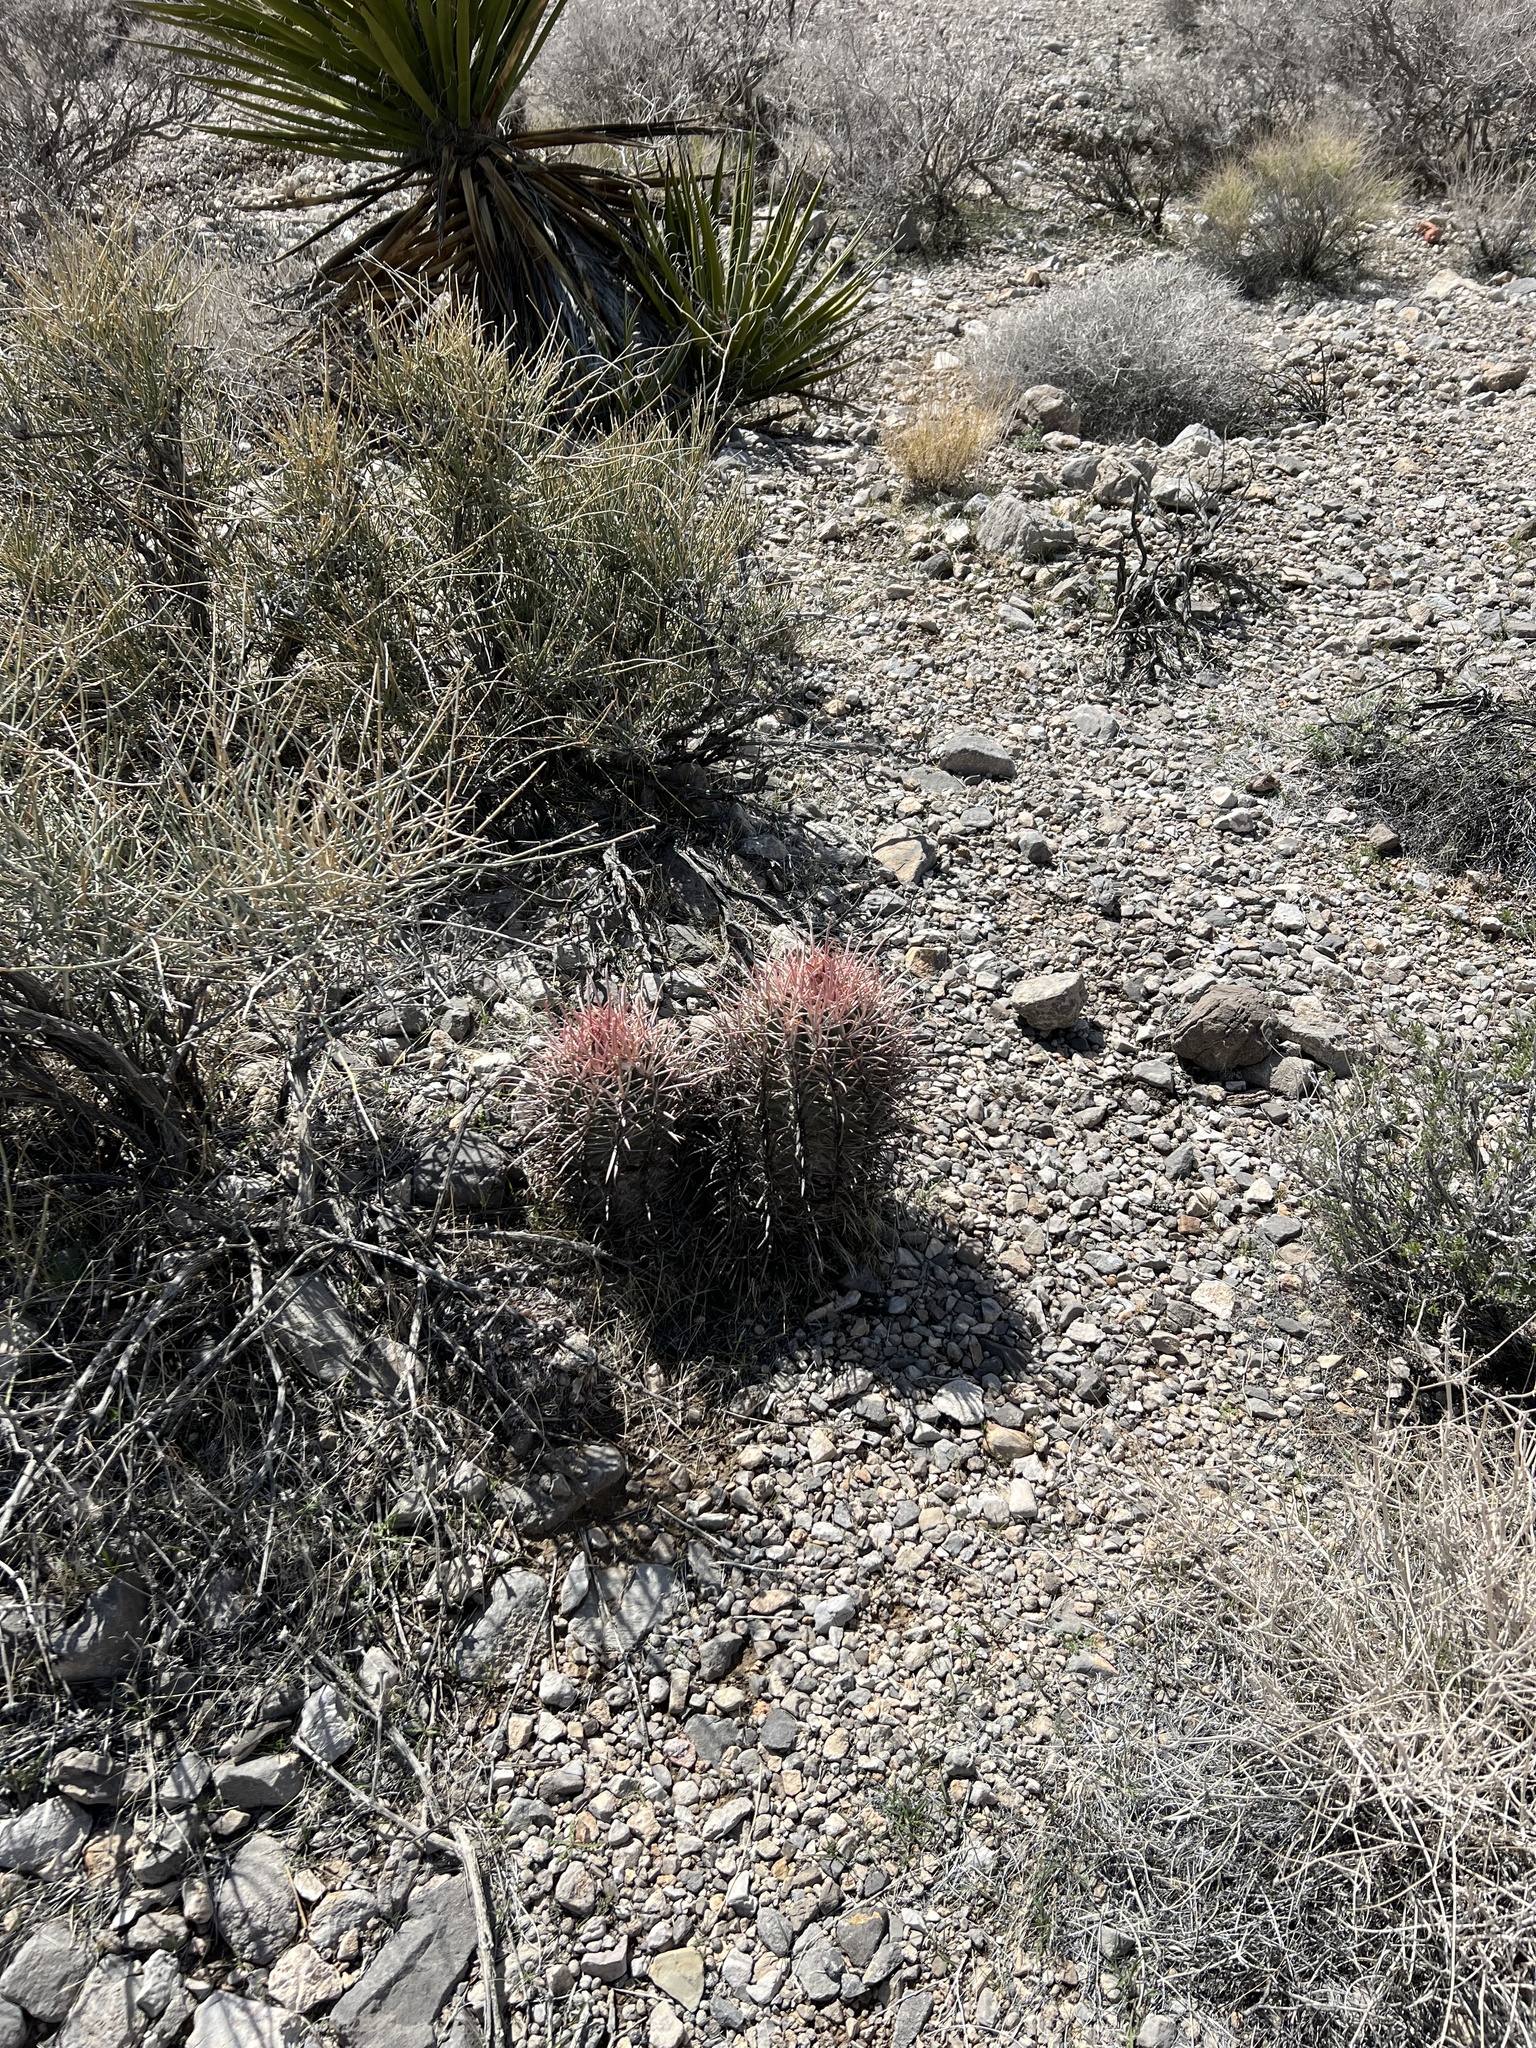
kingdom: Plantae
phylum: Tracheophyta
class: Magnoliopsida
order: Caryophyllales
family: Cactaceae
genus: Echinocactus
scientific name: Echinocactus polycephalus
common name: Cottontop cactus
